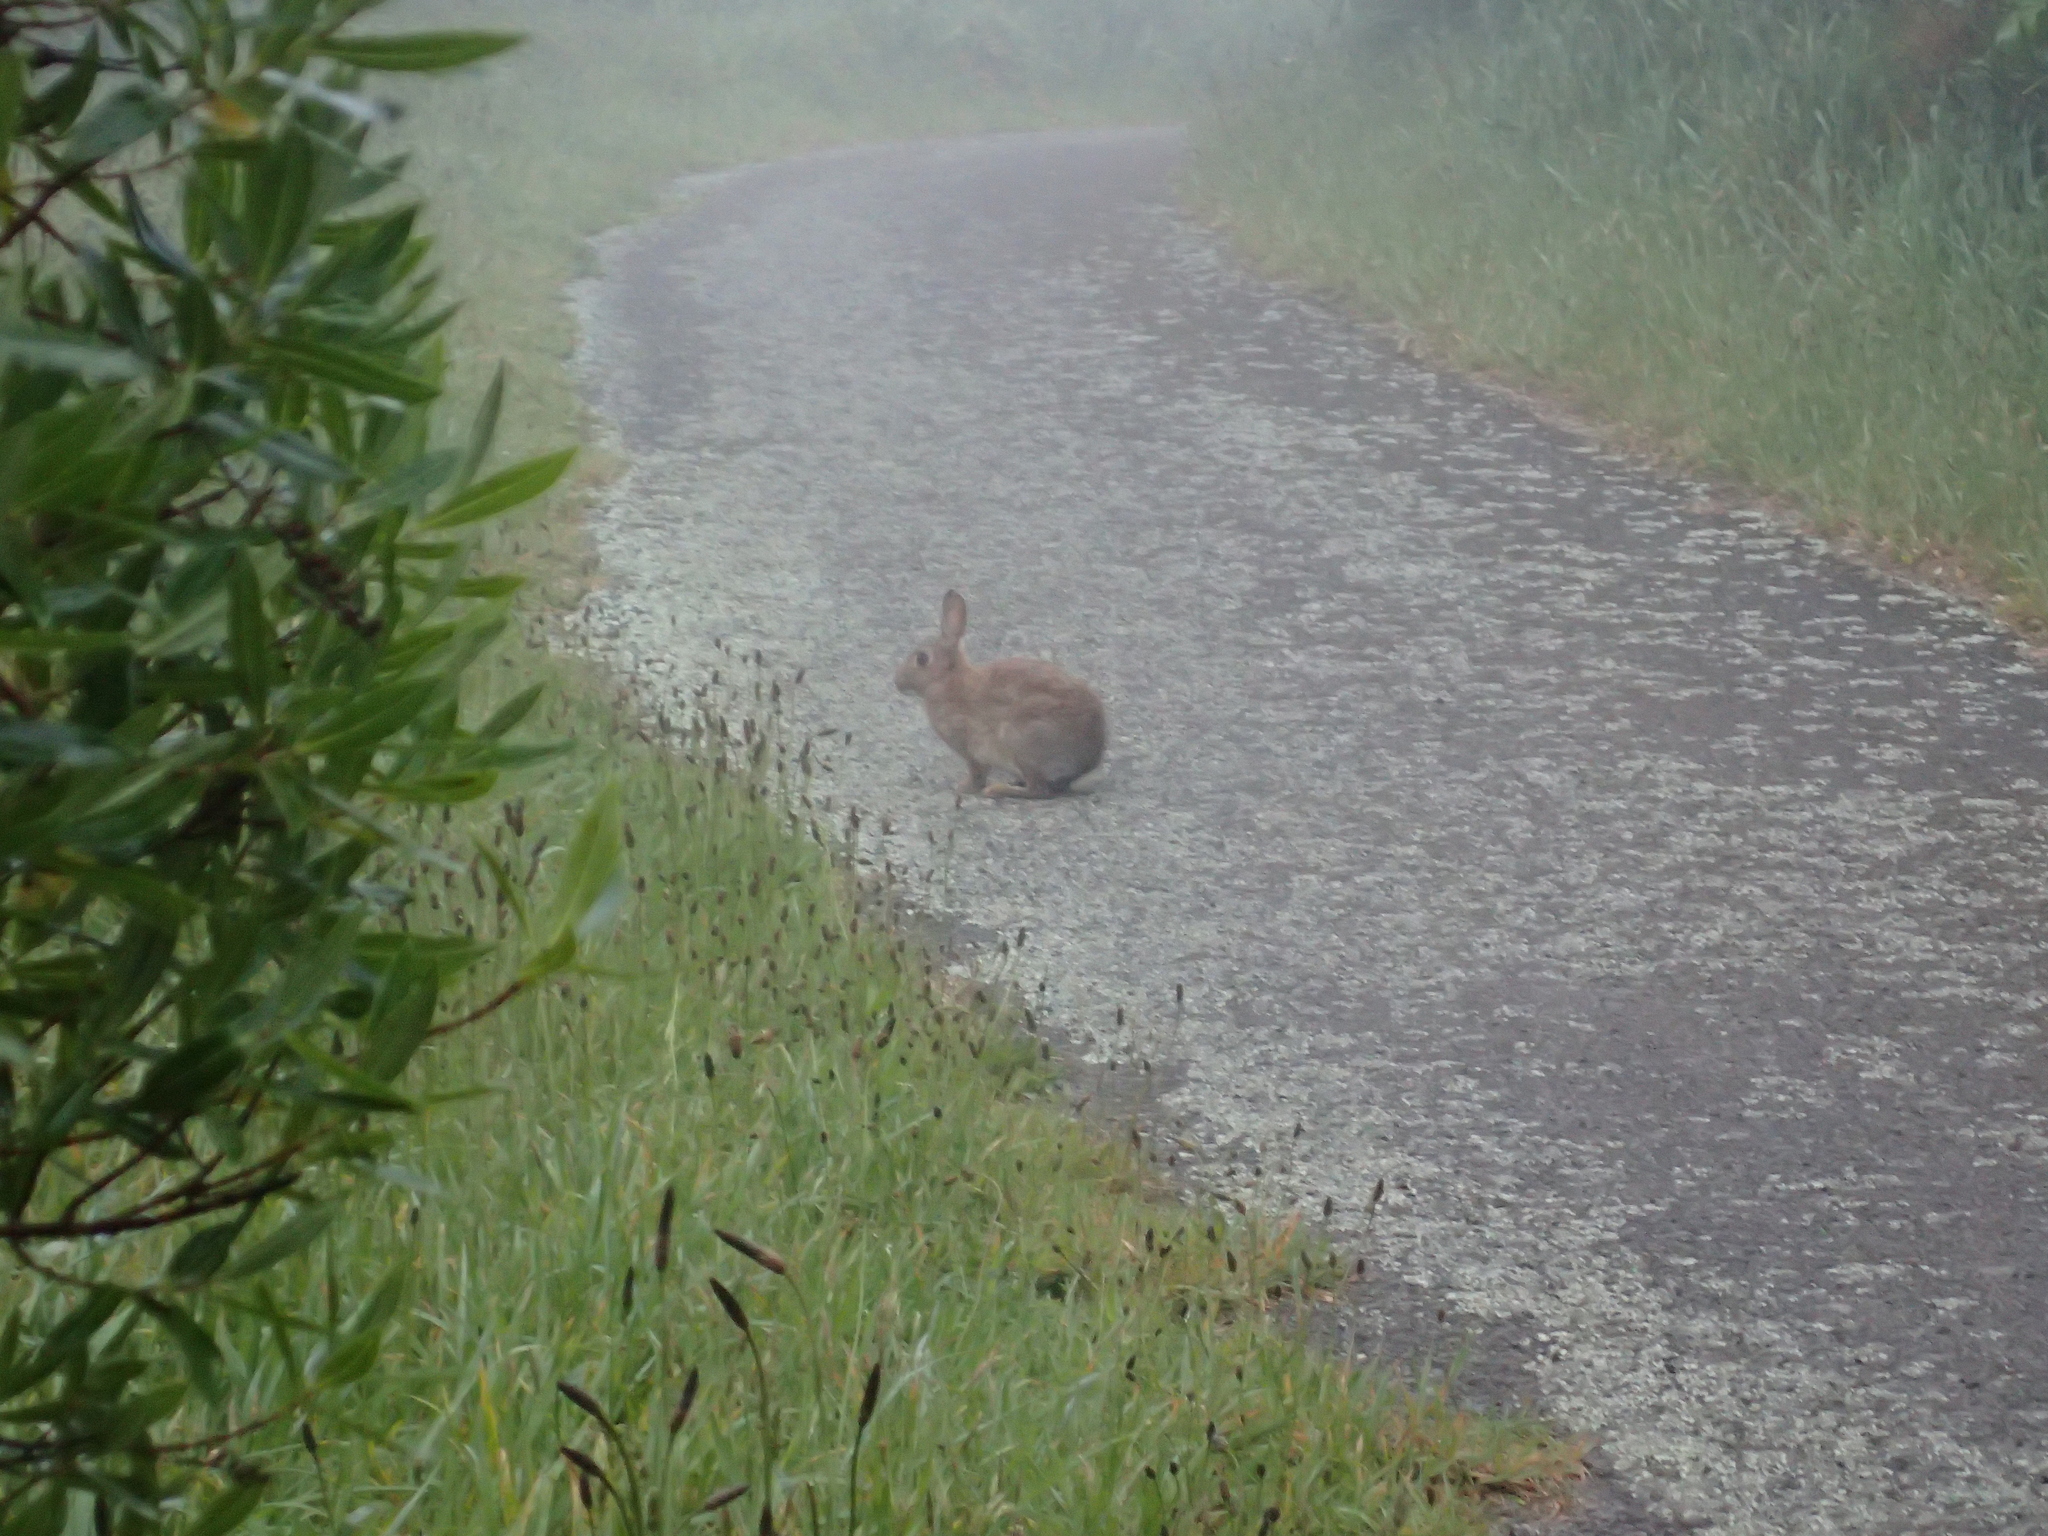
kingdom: Animalia
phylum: Chordata
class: Mammalia
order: Lagomorpha
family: Leporidae
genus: Oryctolagus
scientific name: Oryctolagus cuniculus
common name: European rabbit
